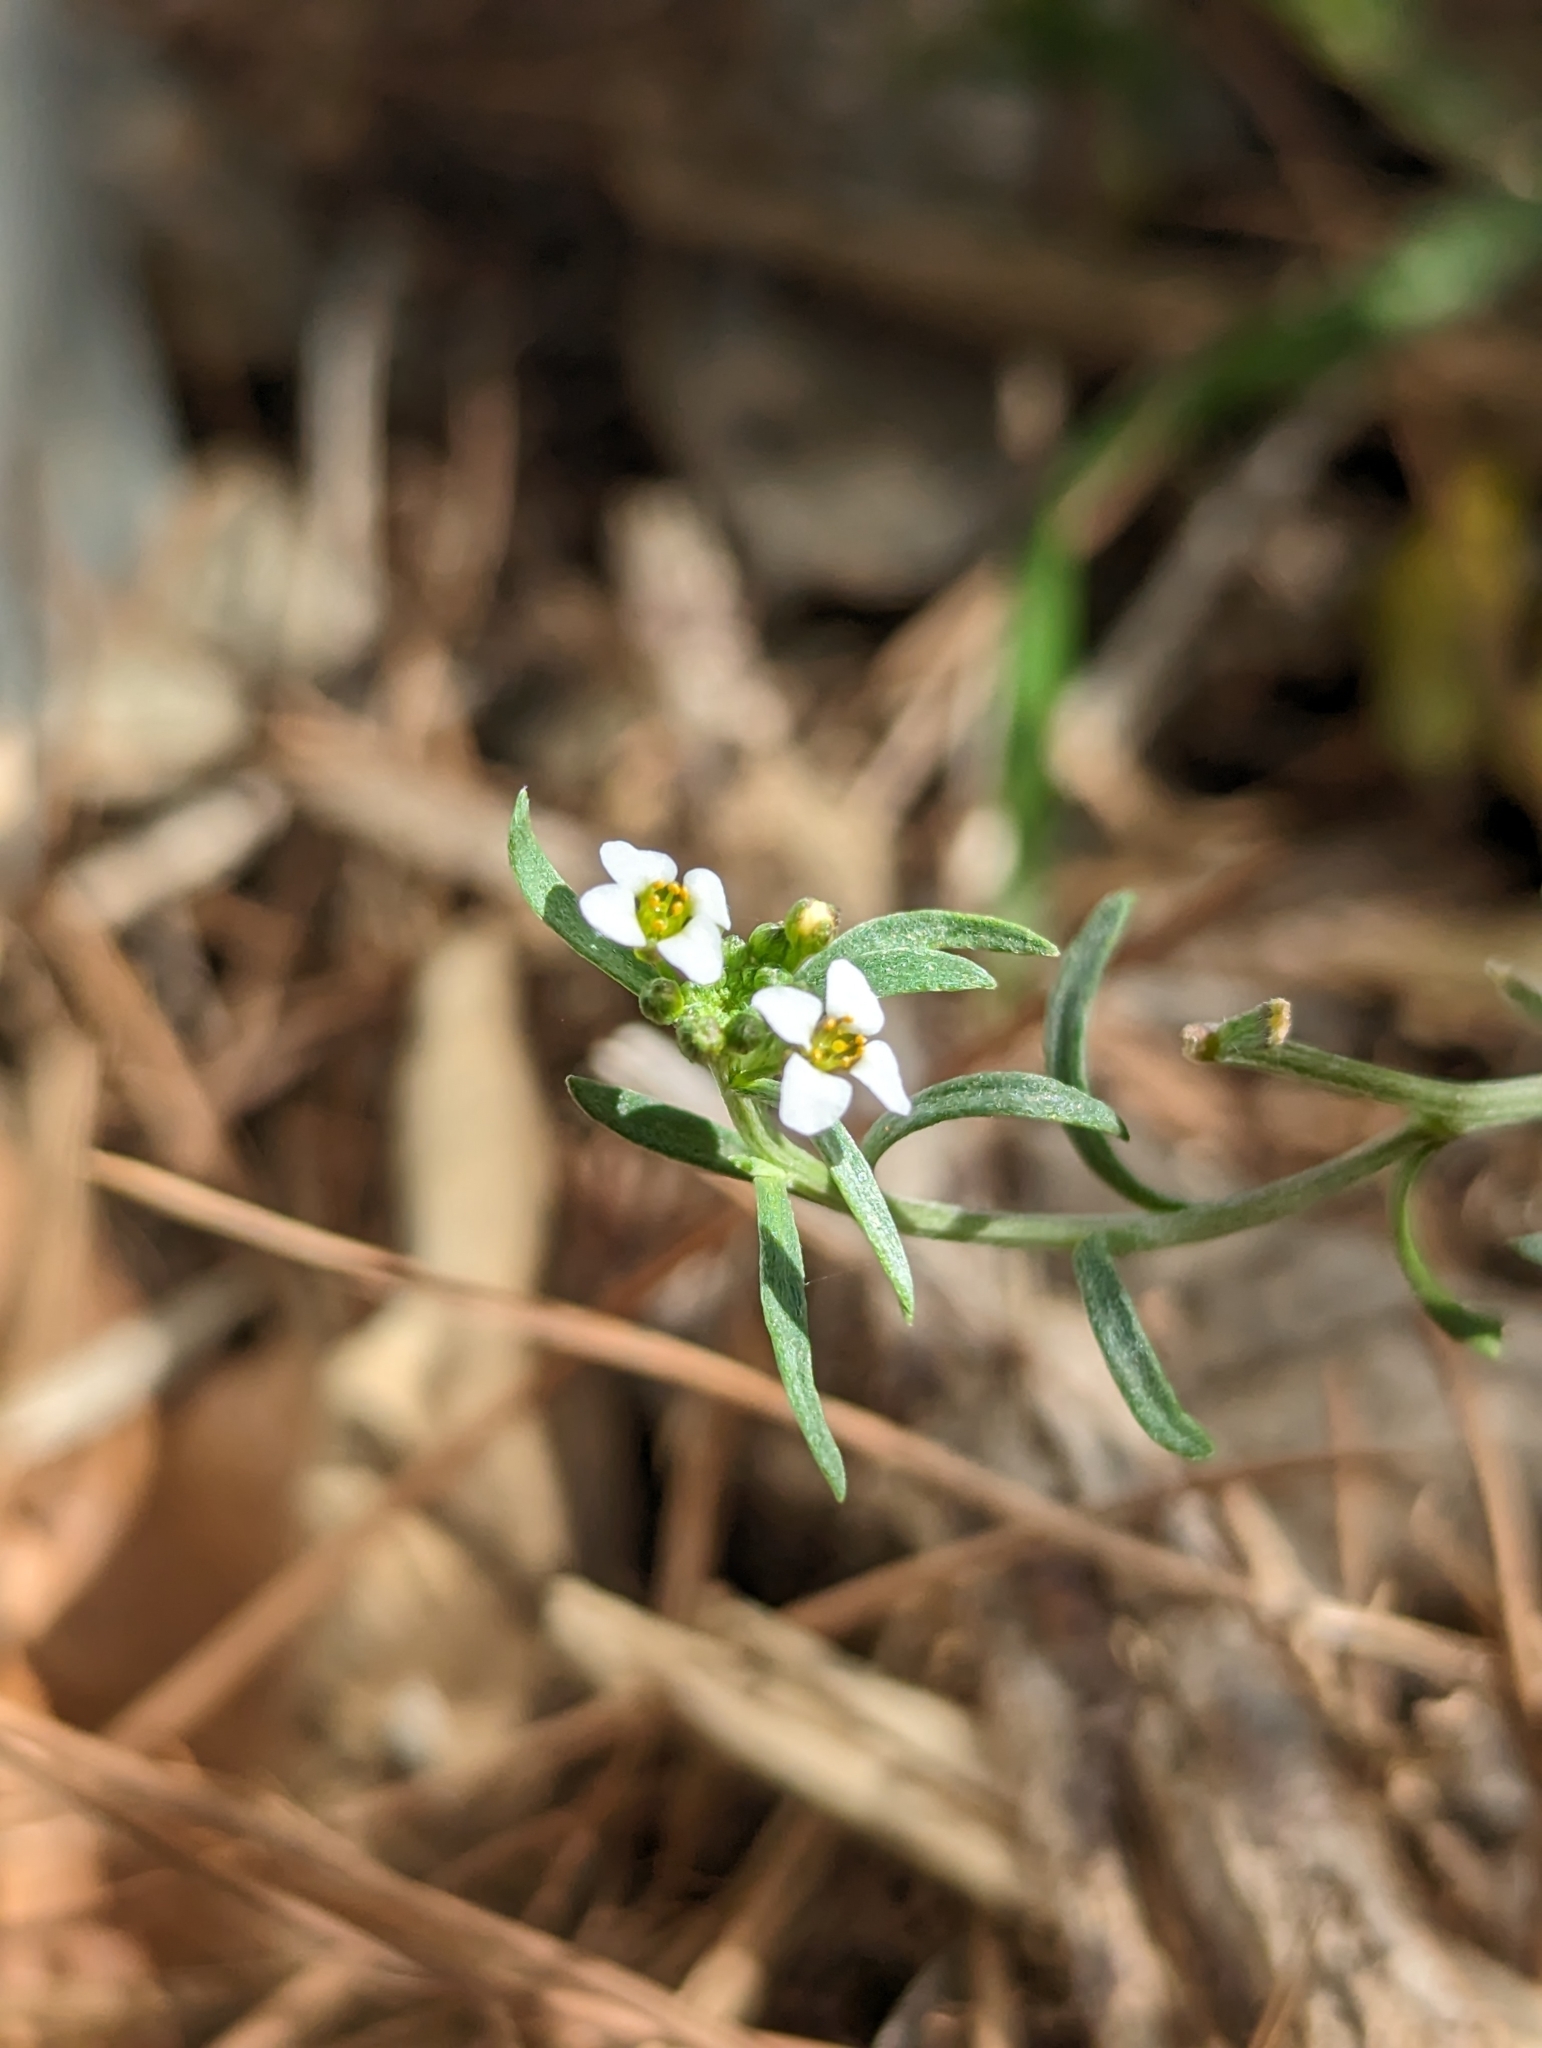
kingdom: Plantae
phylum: Tracheophyta
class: Magnoliopsida
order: Brassicales
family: Brassicaceae
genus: Lobularia
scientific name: Lobularia maritima
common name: Sweet alison
